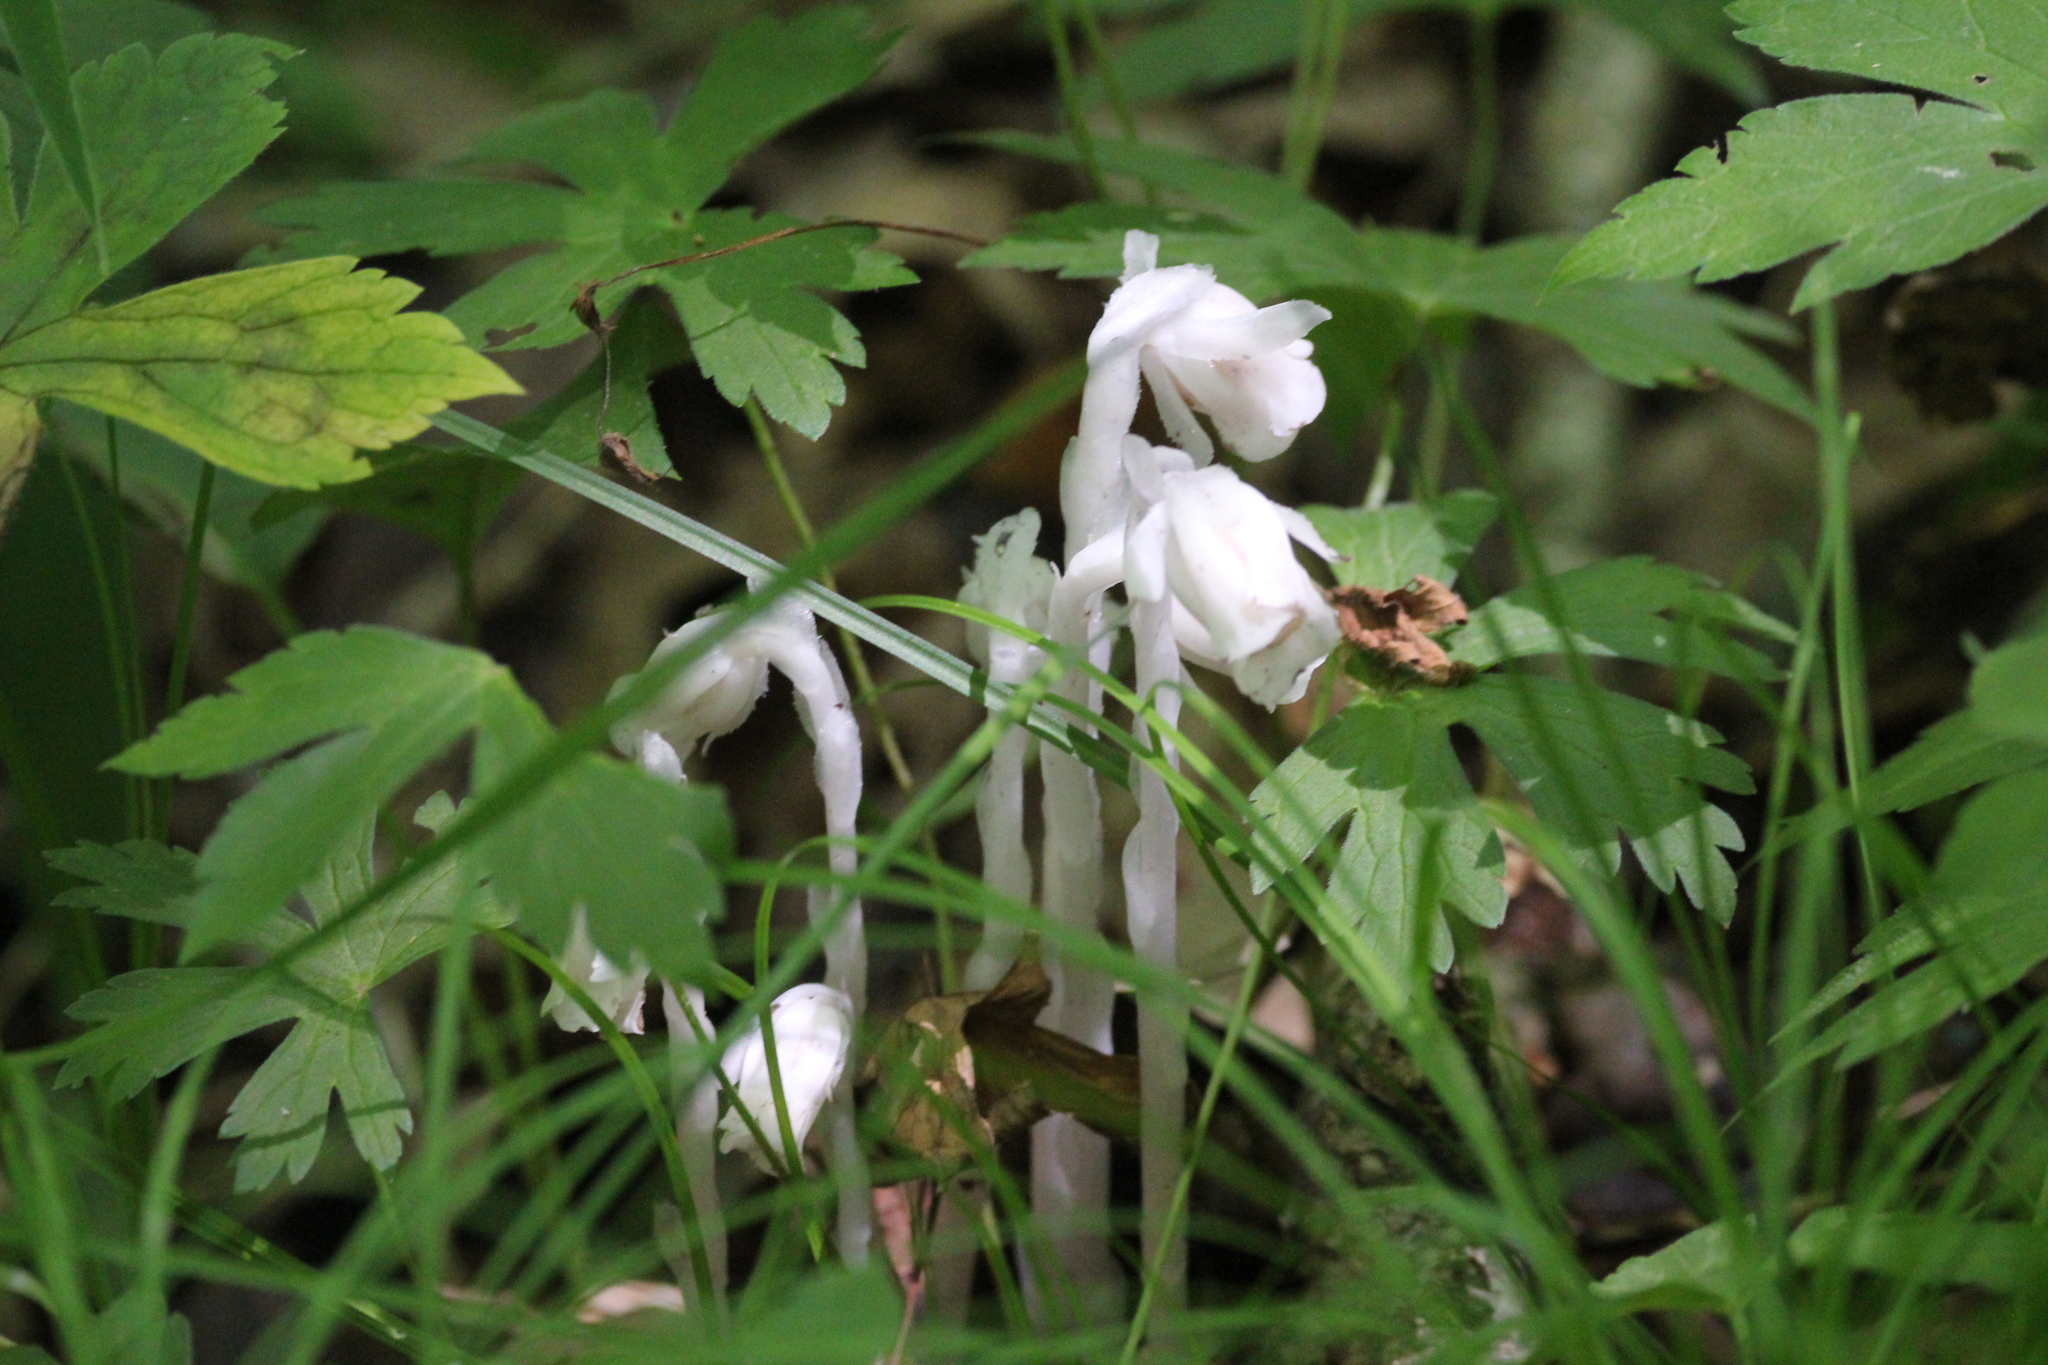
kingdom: Plantae
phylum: Tracheophyta
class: Magnoliopsida
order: Ericales
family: Ericaceae
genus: Monotropa
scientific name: Monotropa uniflora
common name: Convulsion root
